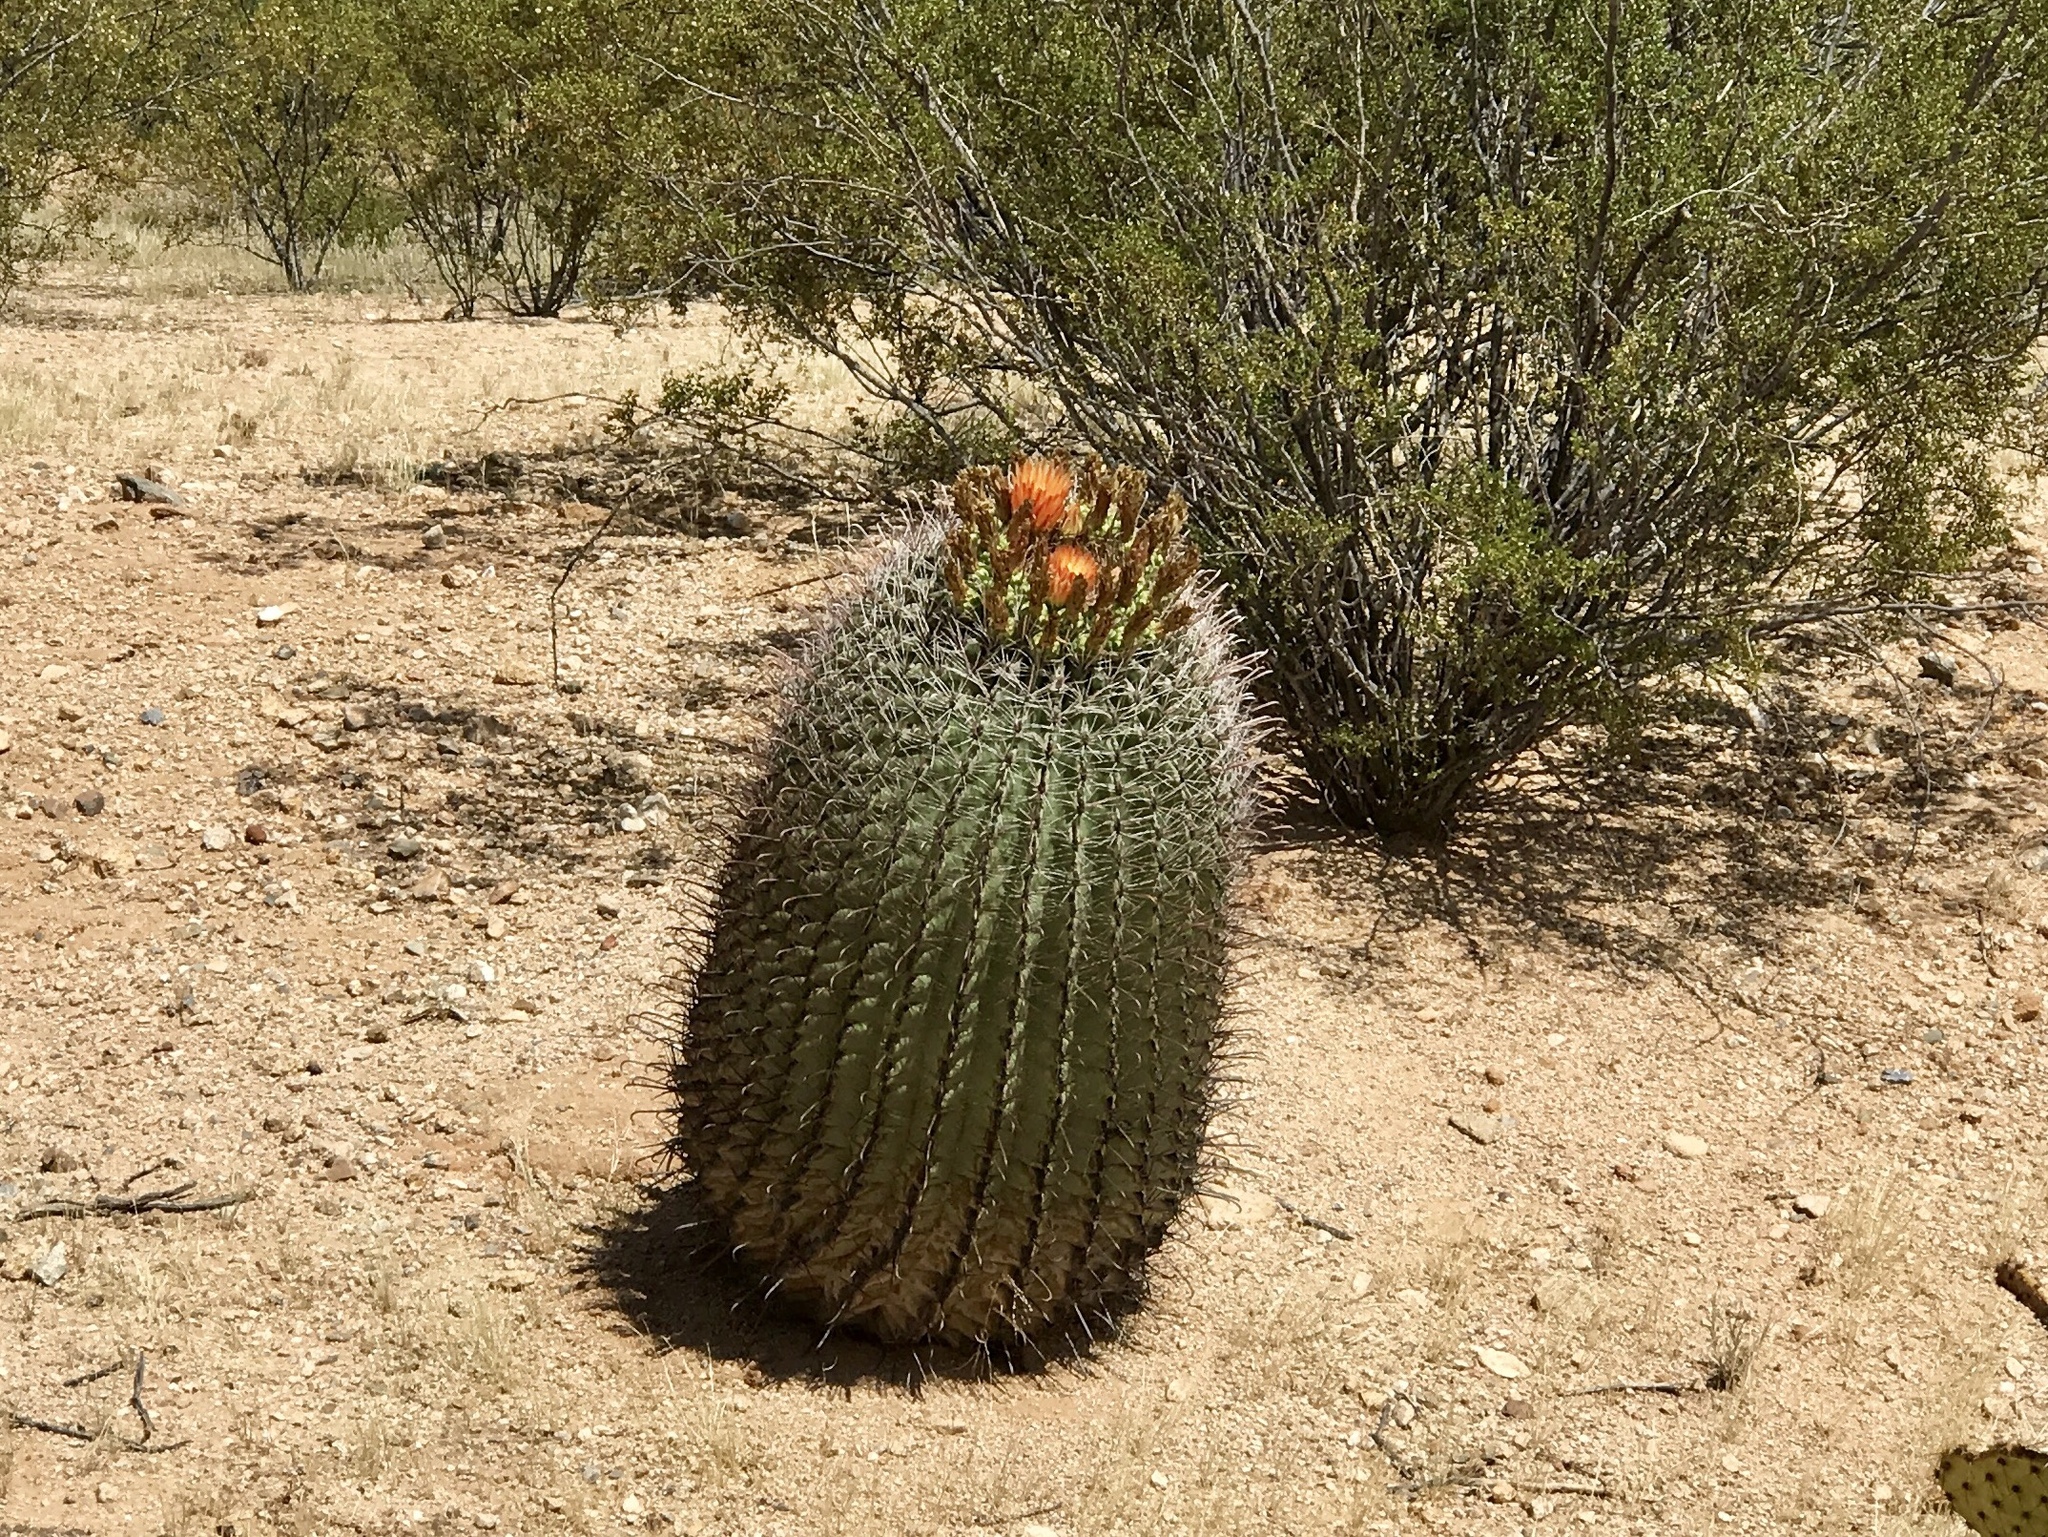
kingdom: Plantae
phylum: Tracheophyta
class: Magnoliopsida
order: Caryophyllales
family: Cactaceae
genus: Ferocactus
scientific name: Ferocactus wislizeni
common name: Candy barrel cactus
